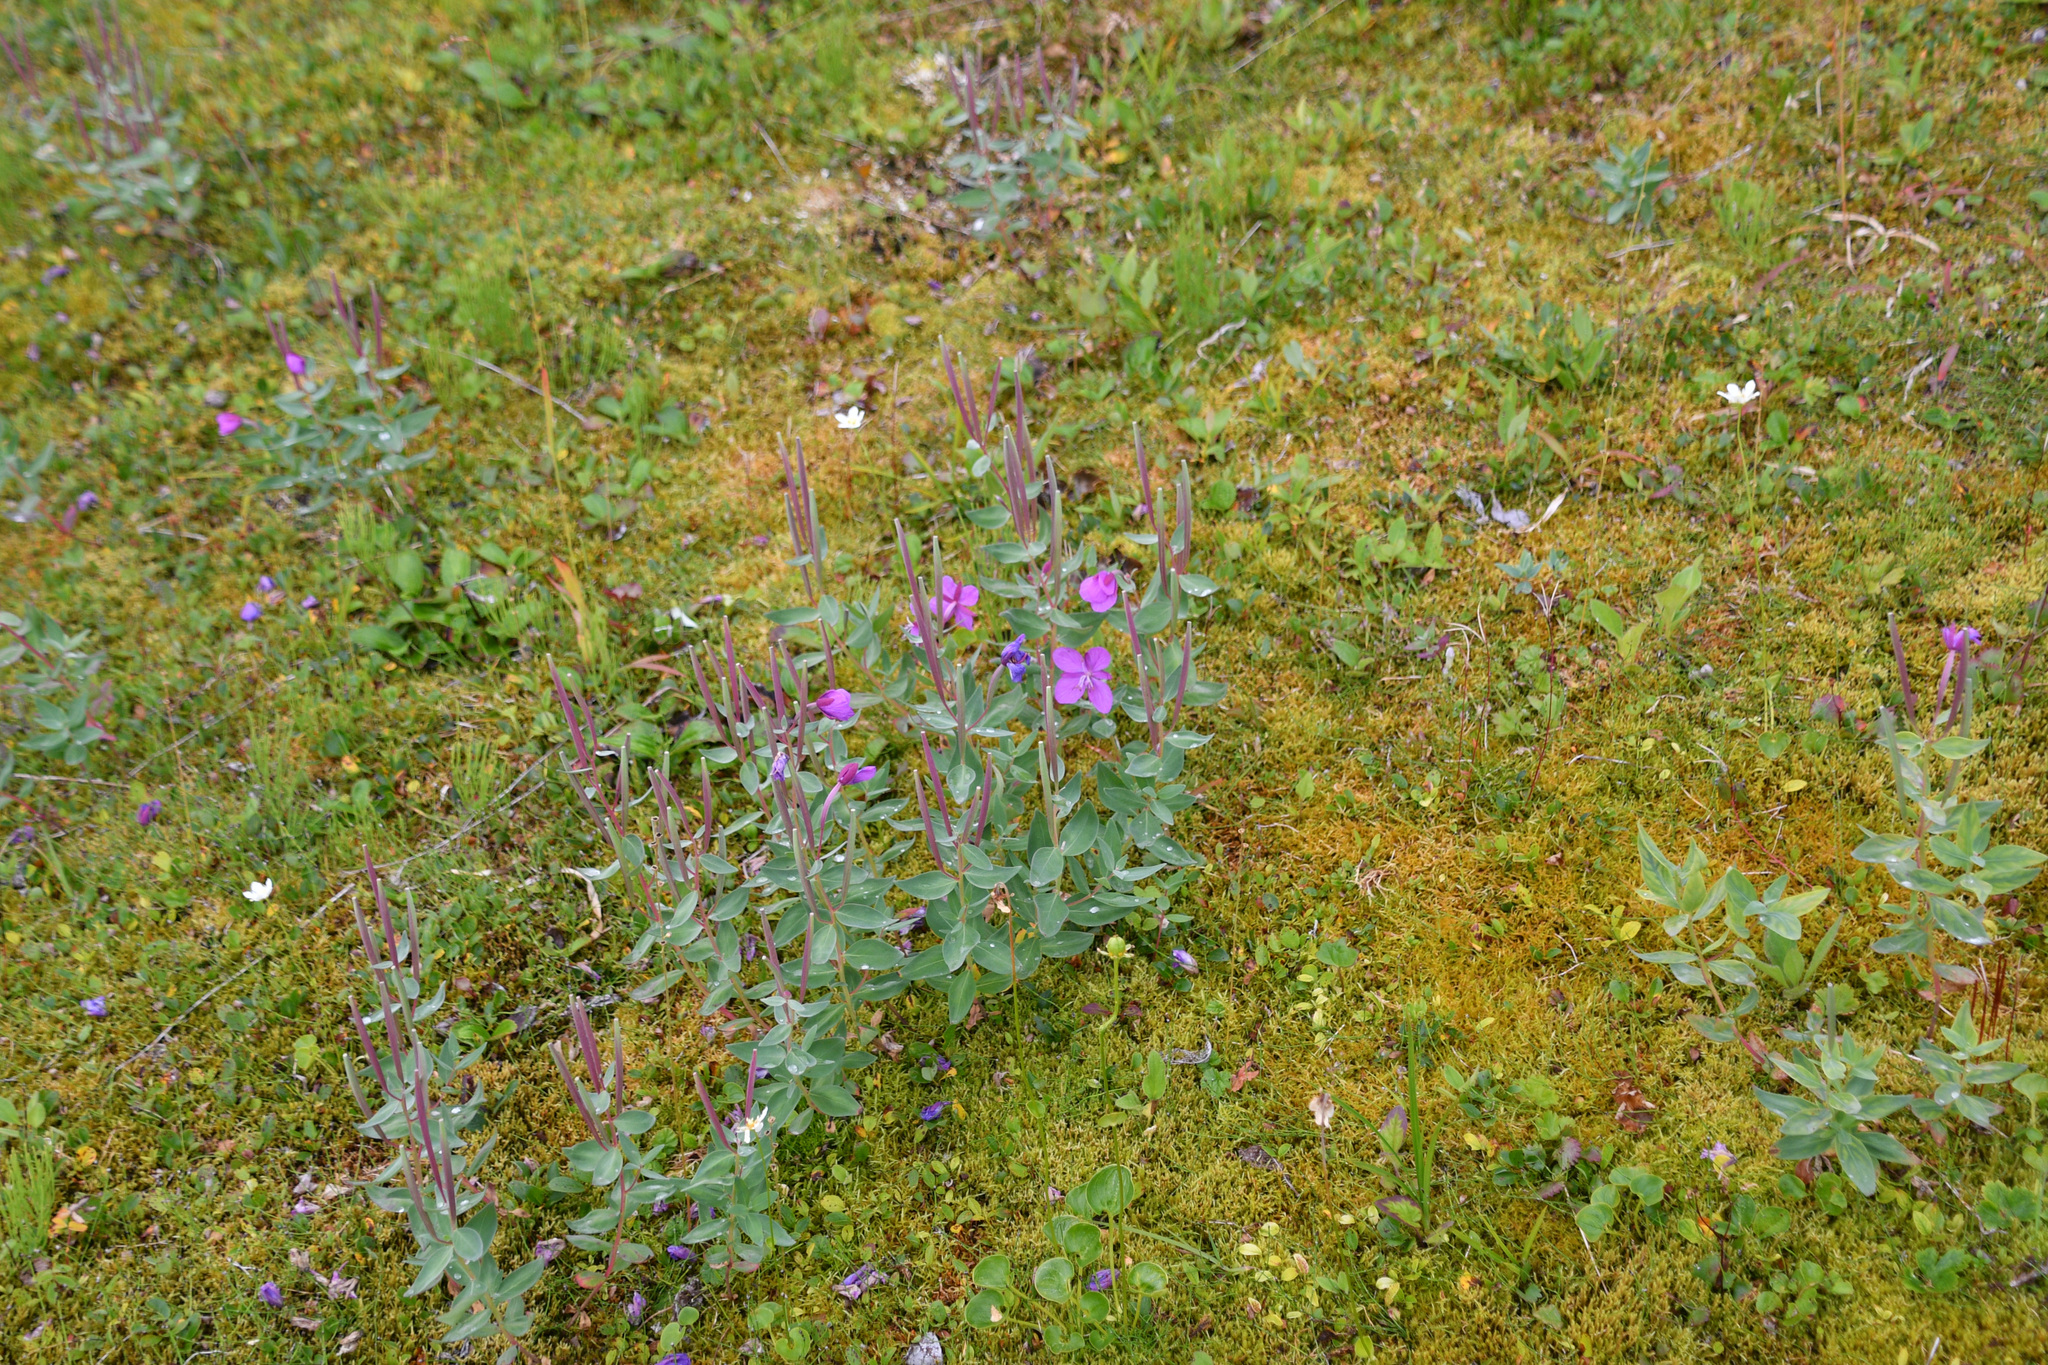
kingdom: Plantae
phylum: Tracheophyta
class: Magnoliopsida
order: Myrtales
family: Onagraceae
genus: Chamaenerion
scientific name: Chamaenerion latifolium
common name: Dwarf fireweed
